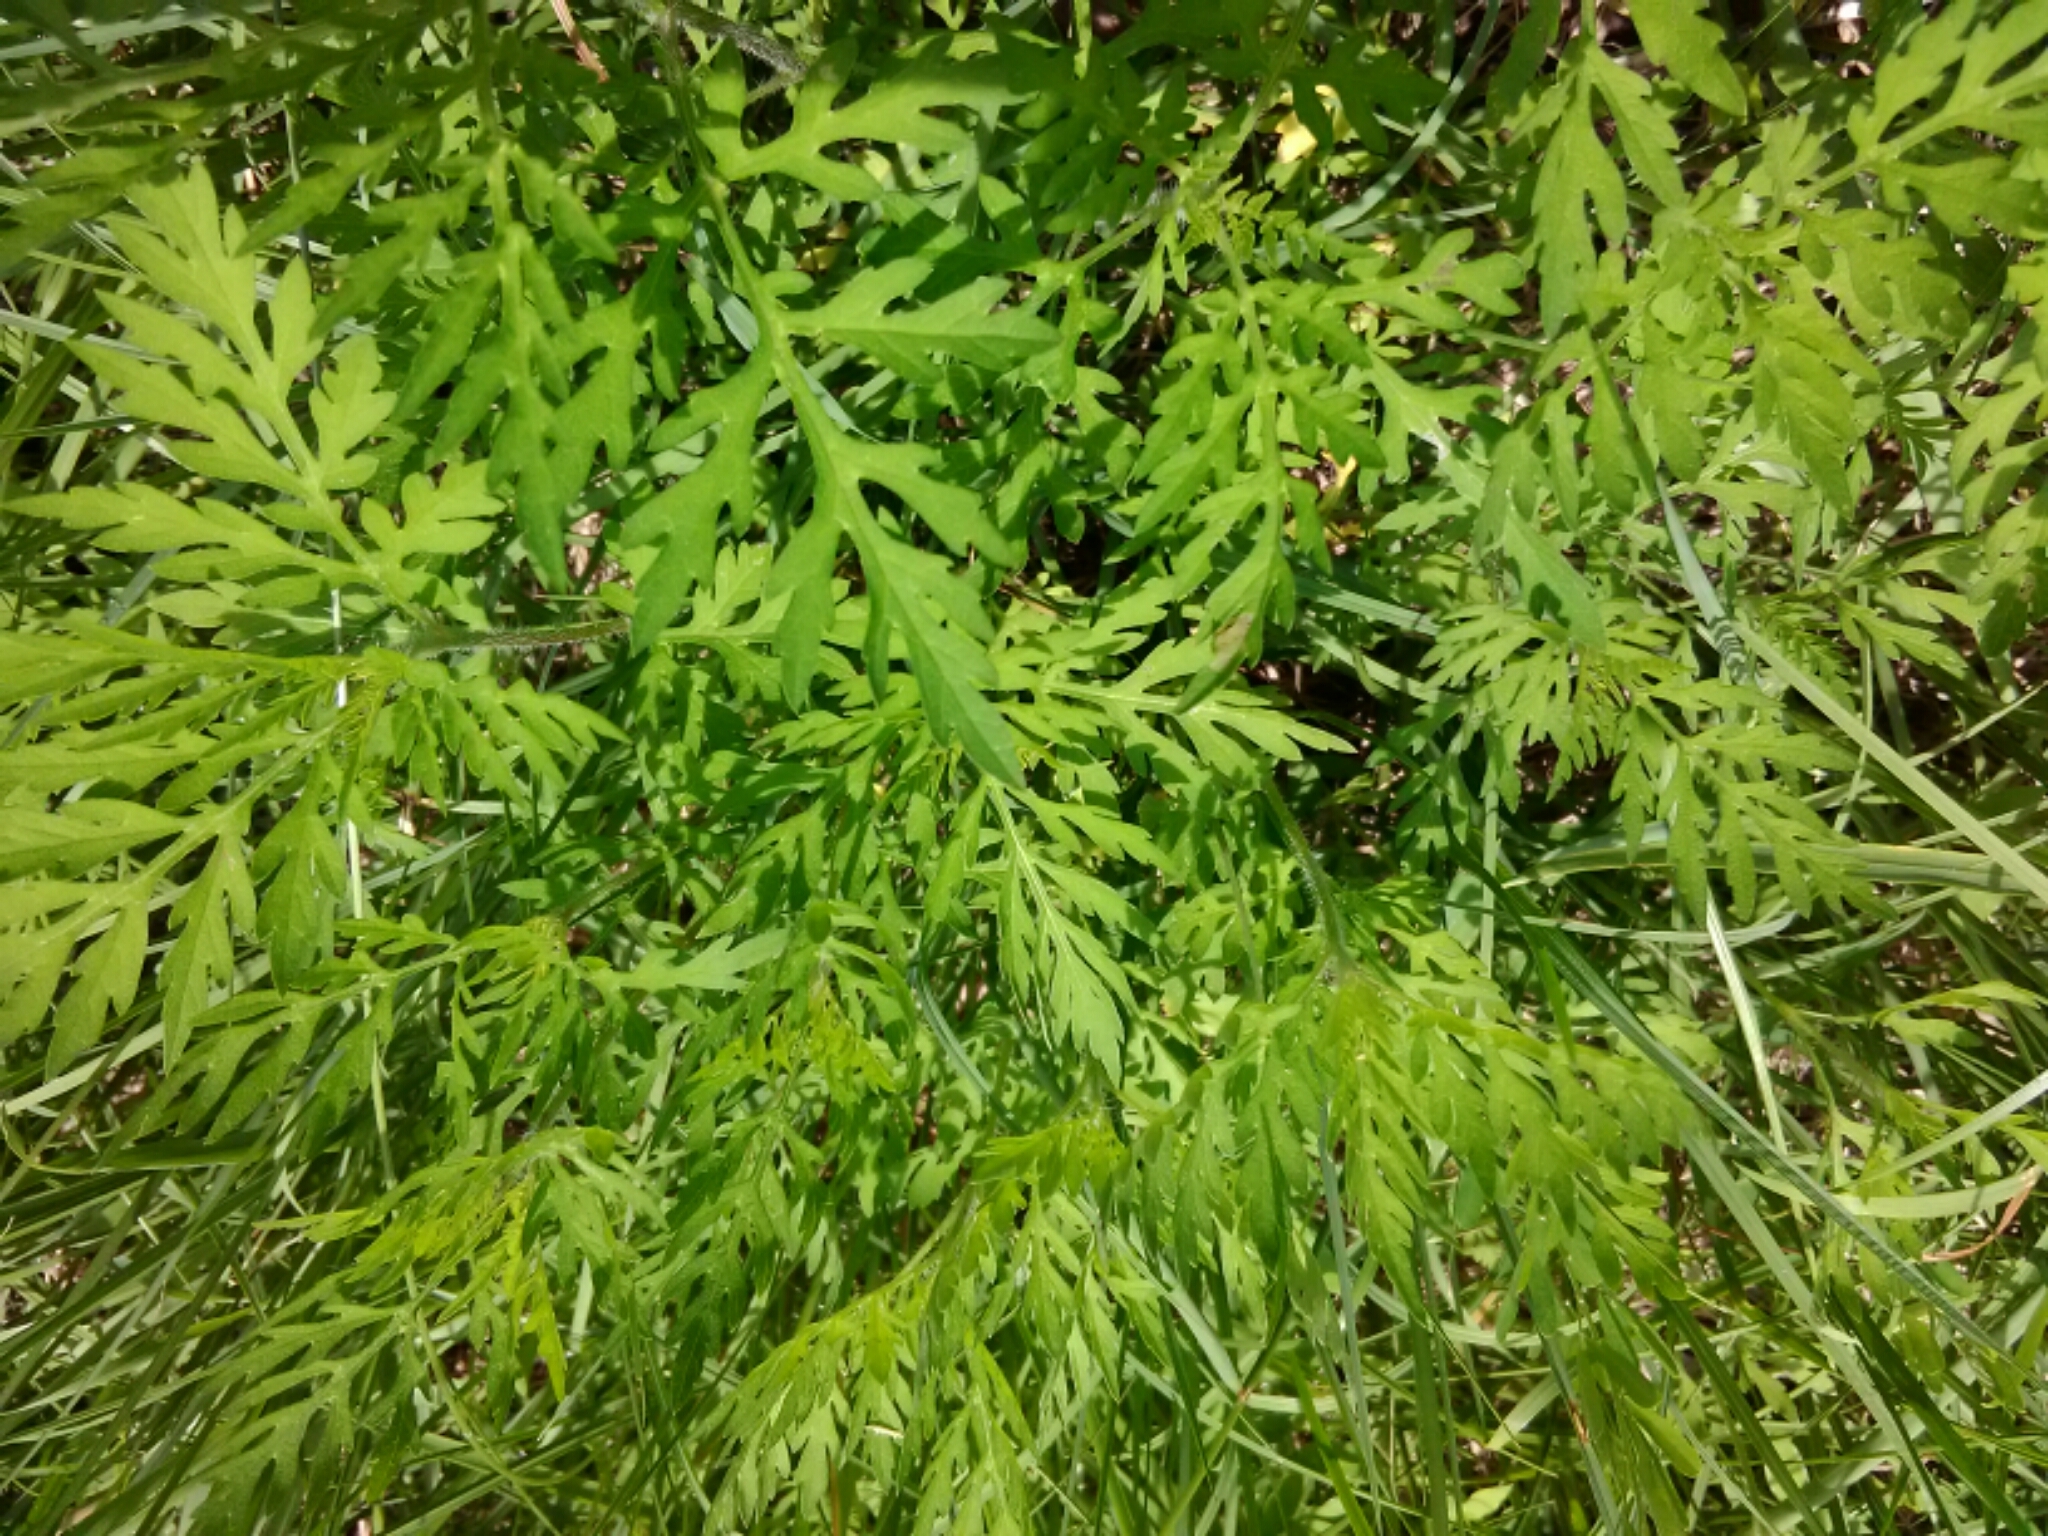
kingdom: Plantae
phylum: Tracheophyta
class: Magnoliopsida
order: Asterales
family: Asteraceae
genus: Ambrosia
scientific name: Ambrosia artemisiifolia
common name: Annual ragweed
